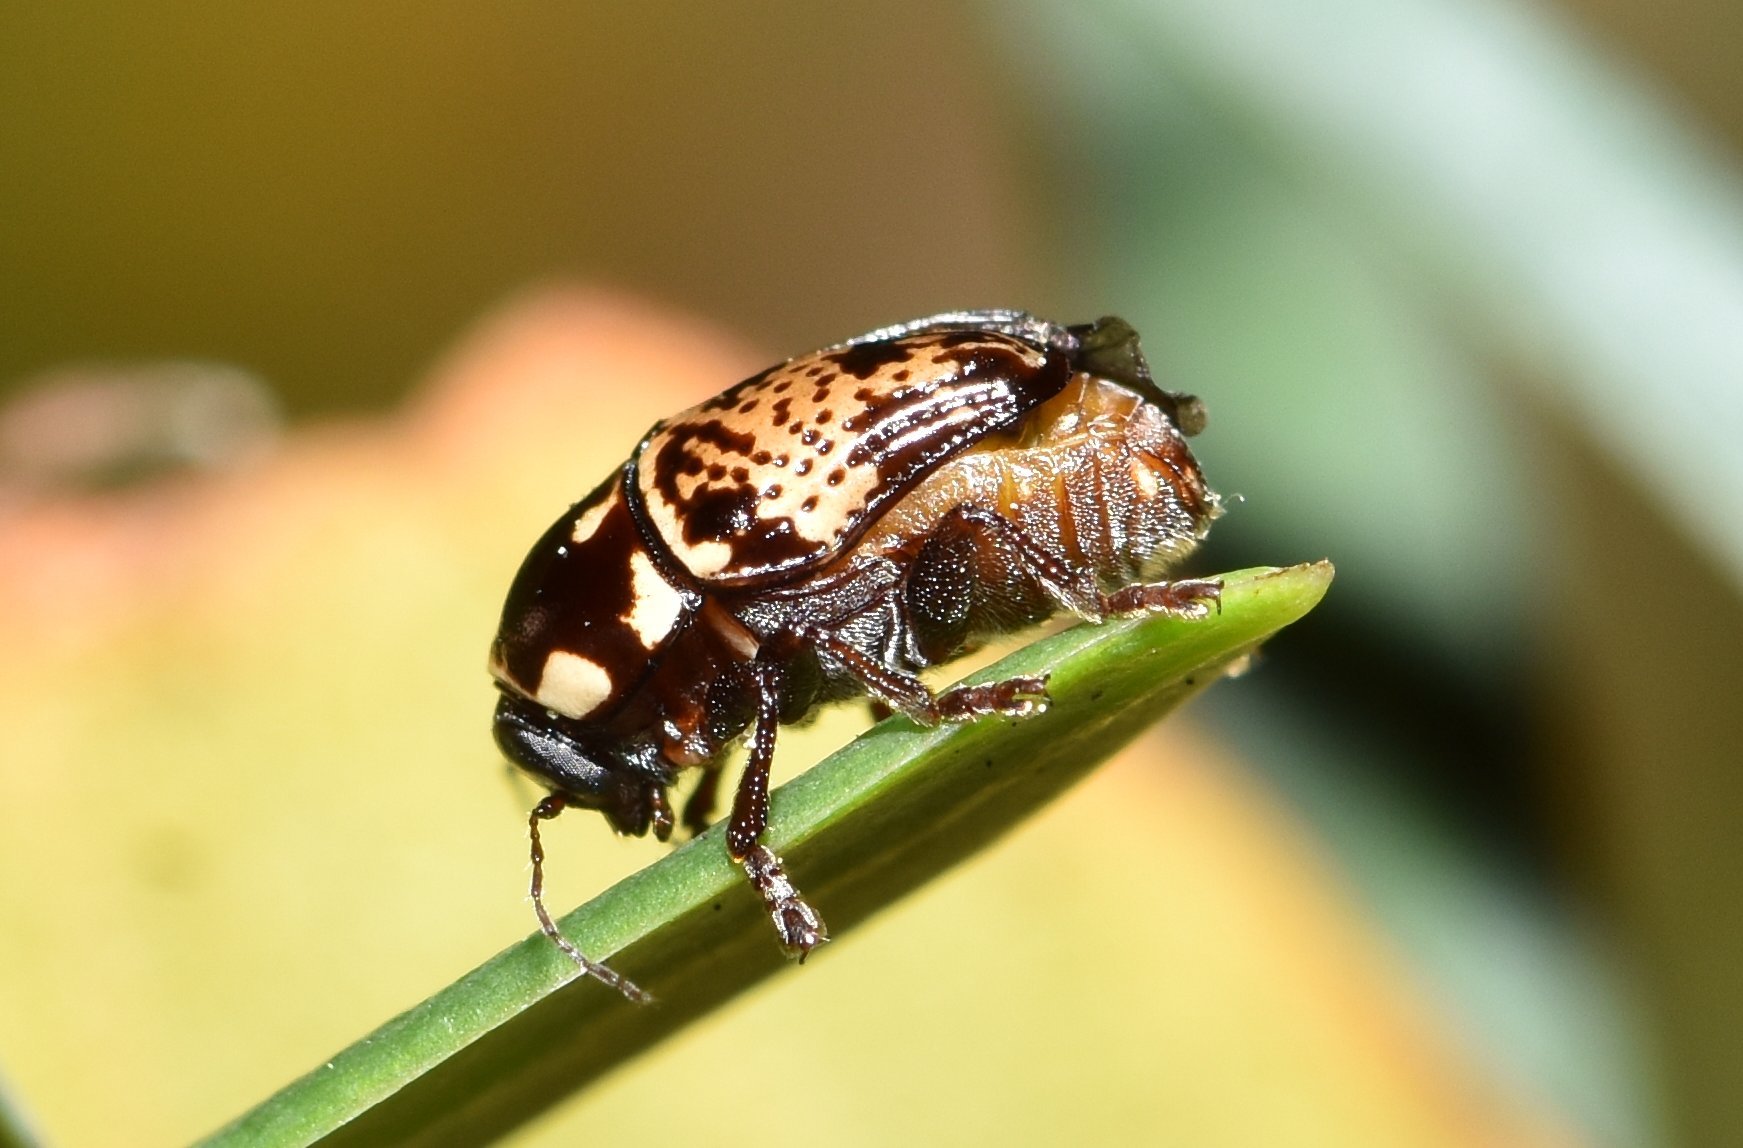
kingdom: Animalia
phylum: Arthropoda
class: Insecta
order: Coleoptera
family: Chrysomelidae
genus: Cryptocephalus
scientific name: Cryptocephalus irroratus
